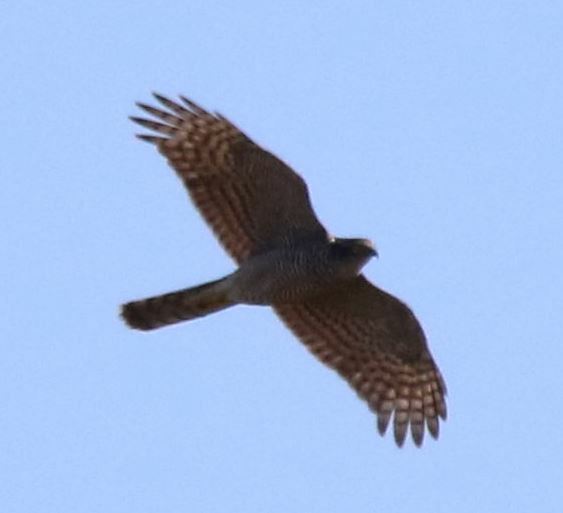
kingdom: Animalia
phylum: Chordata
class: Aves
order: Accipitriformes
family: Accipitridae
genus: Accipiter
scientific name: Accipiter nisus
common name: Eurasian sparrowhawk
